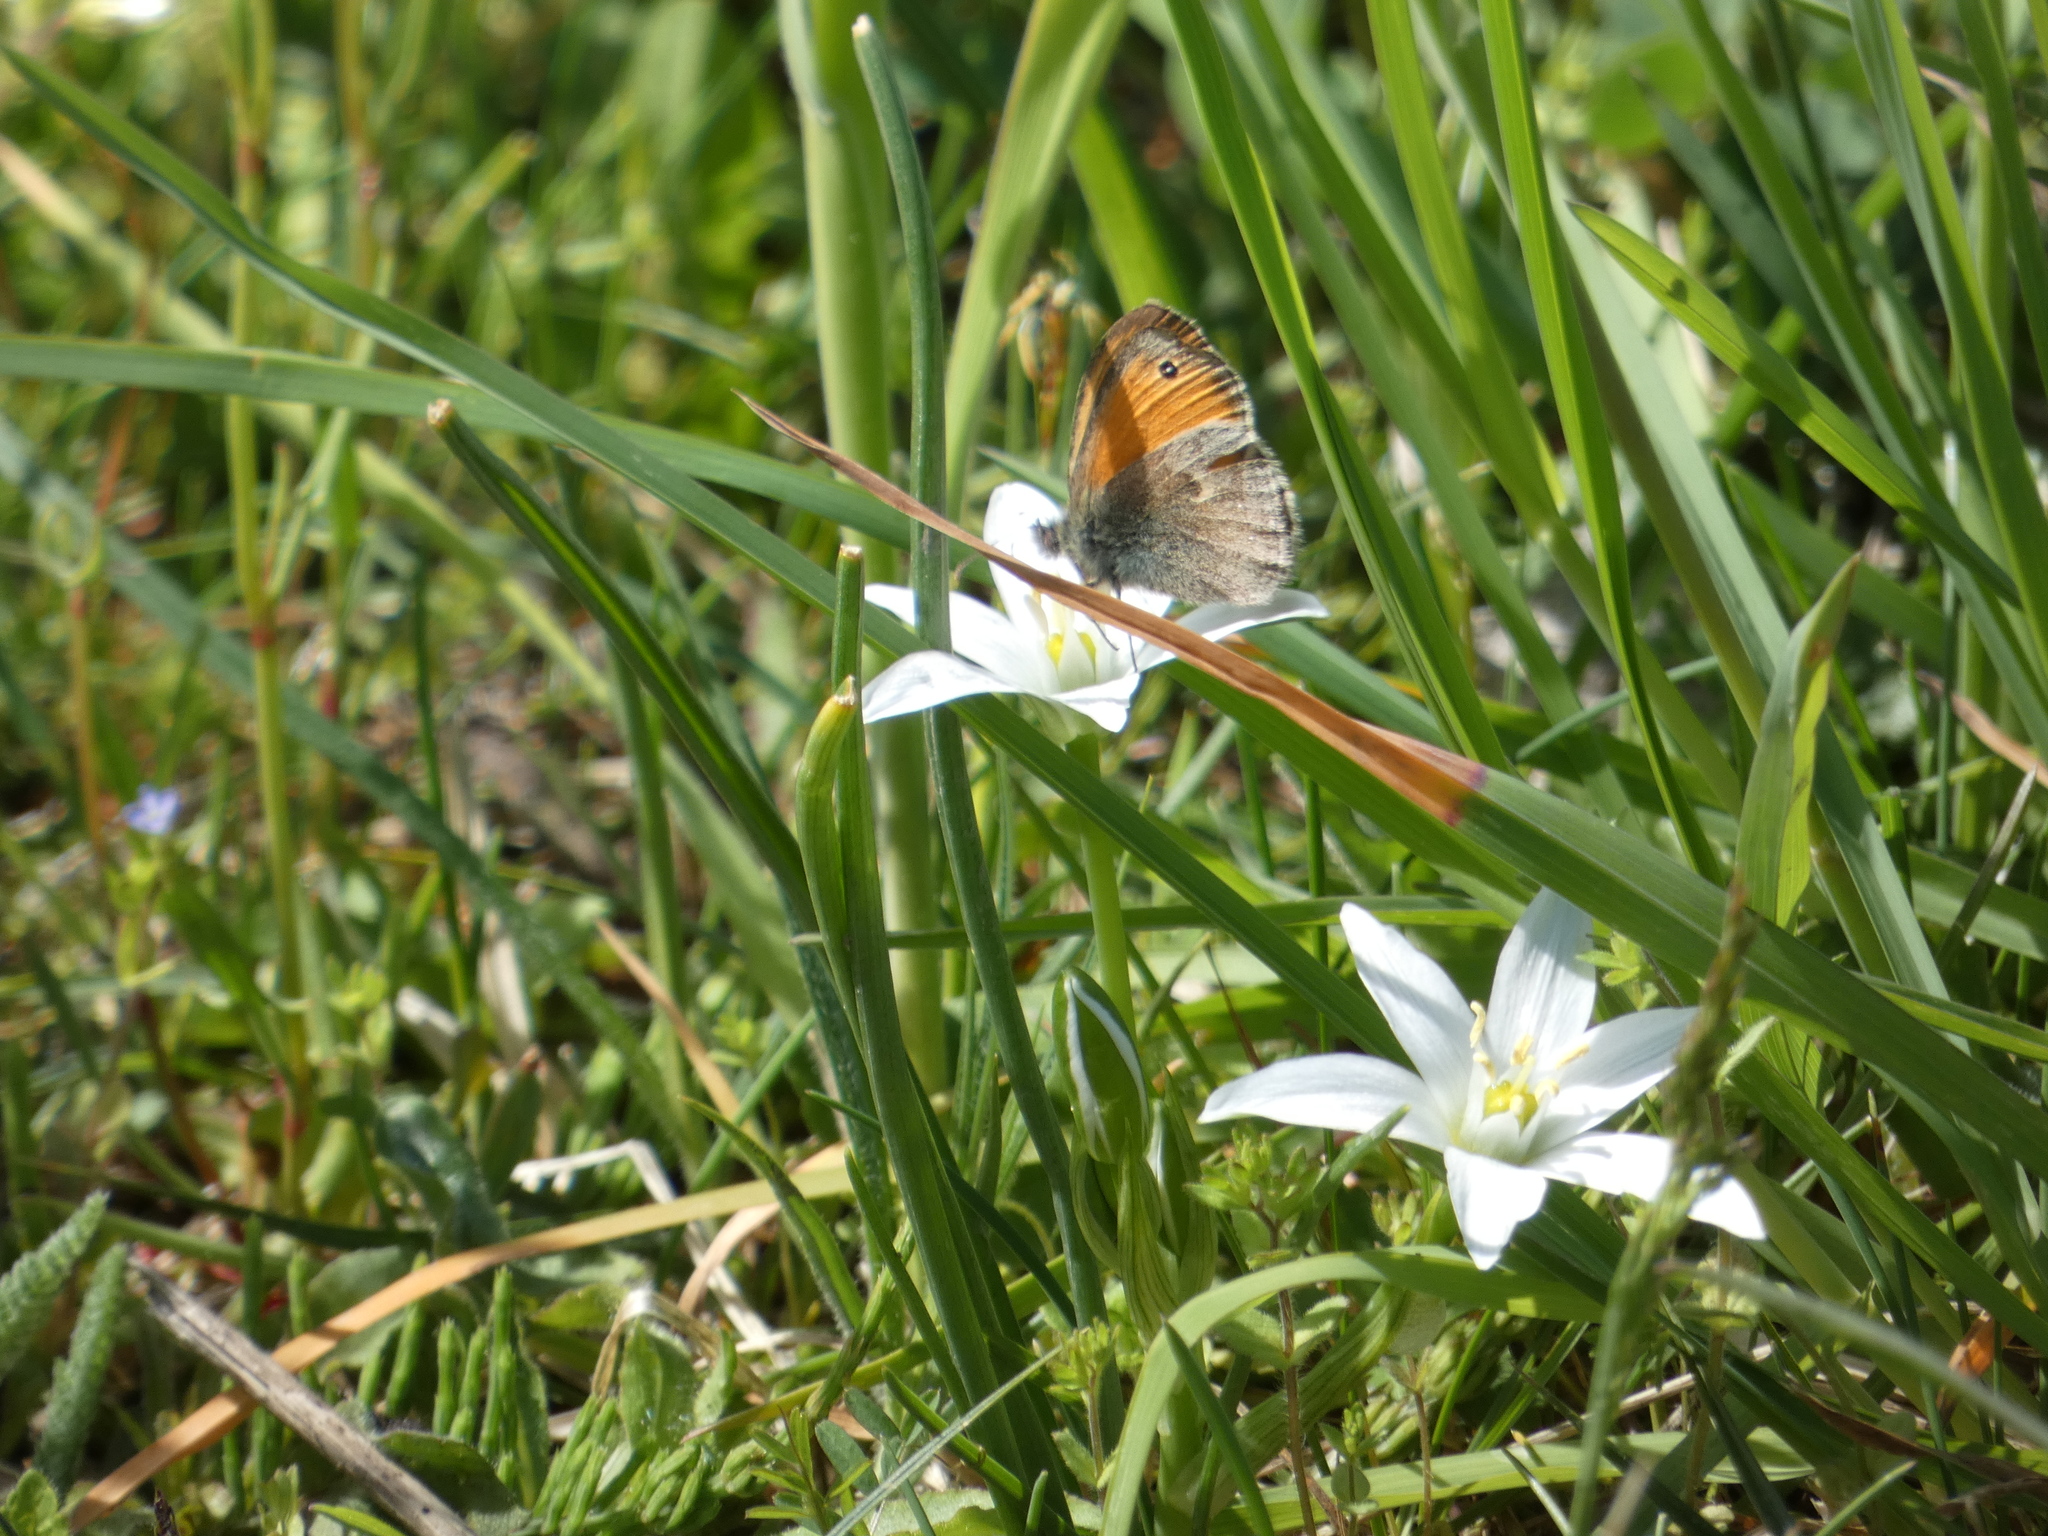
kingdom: Animalia
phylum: Arthropoda
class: Insecta
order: Lepidoptera
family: Nymphalidae
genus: Coenonympha
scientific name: Coenonympha pamphilus
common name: Small heath
